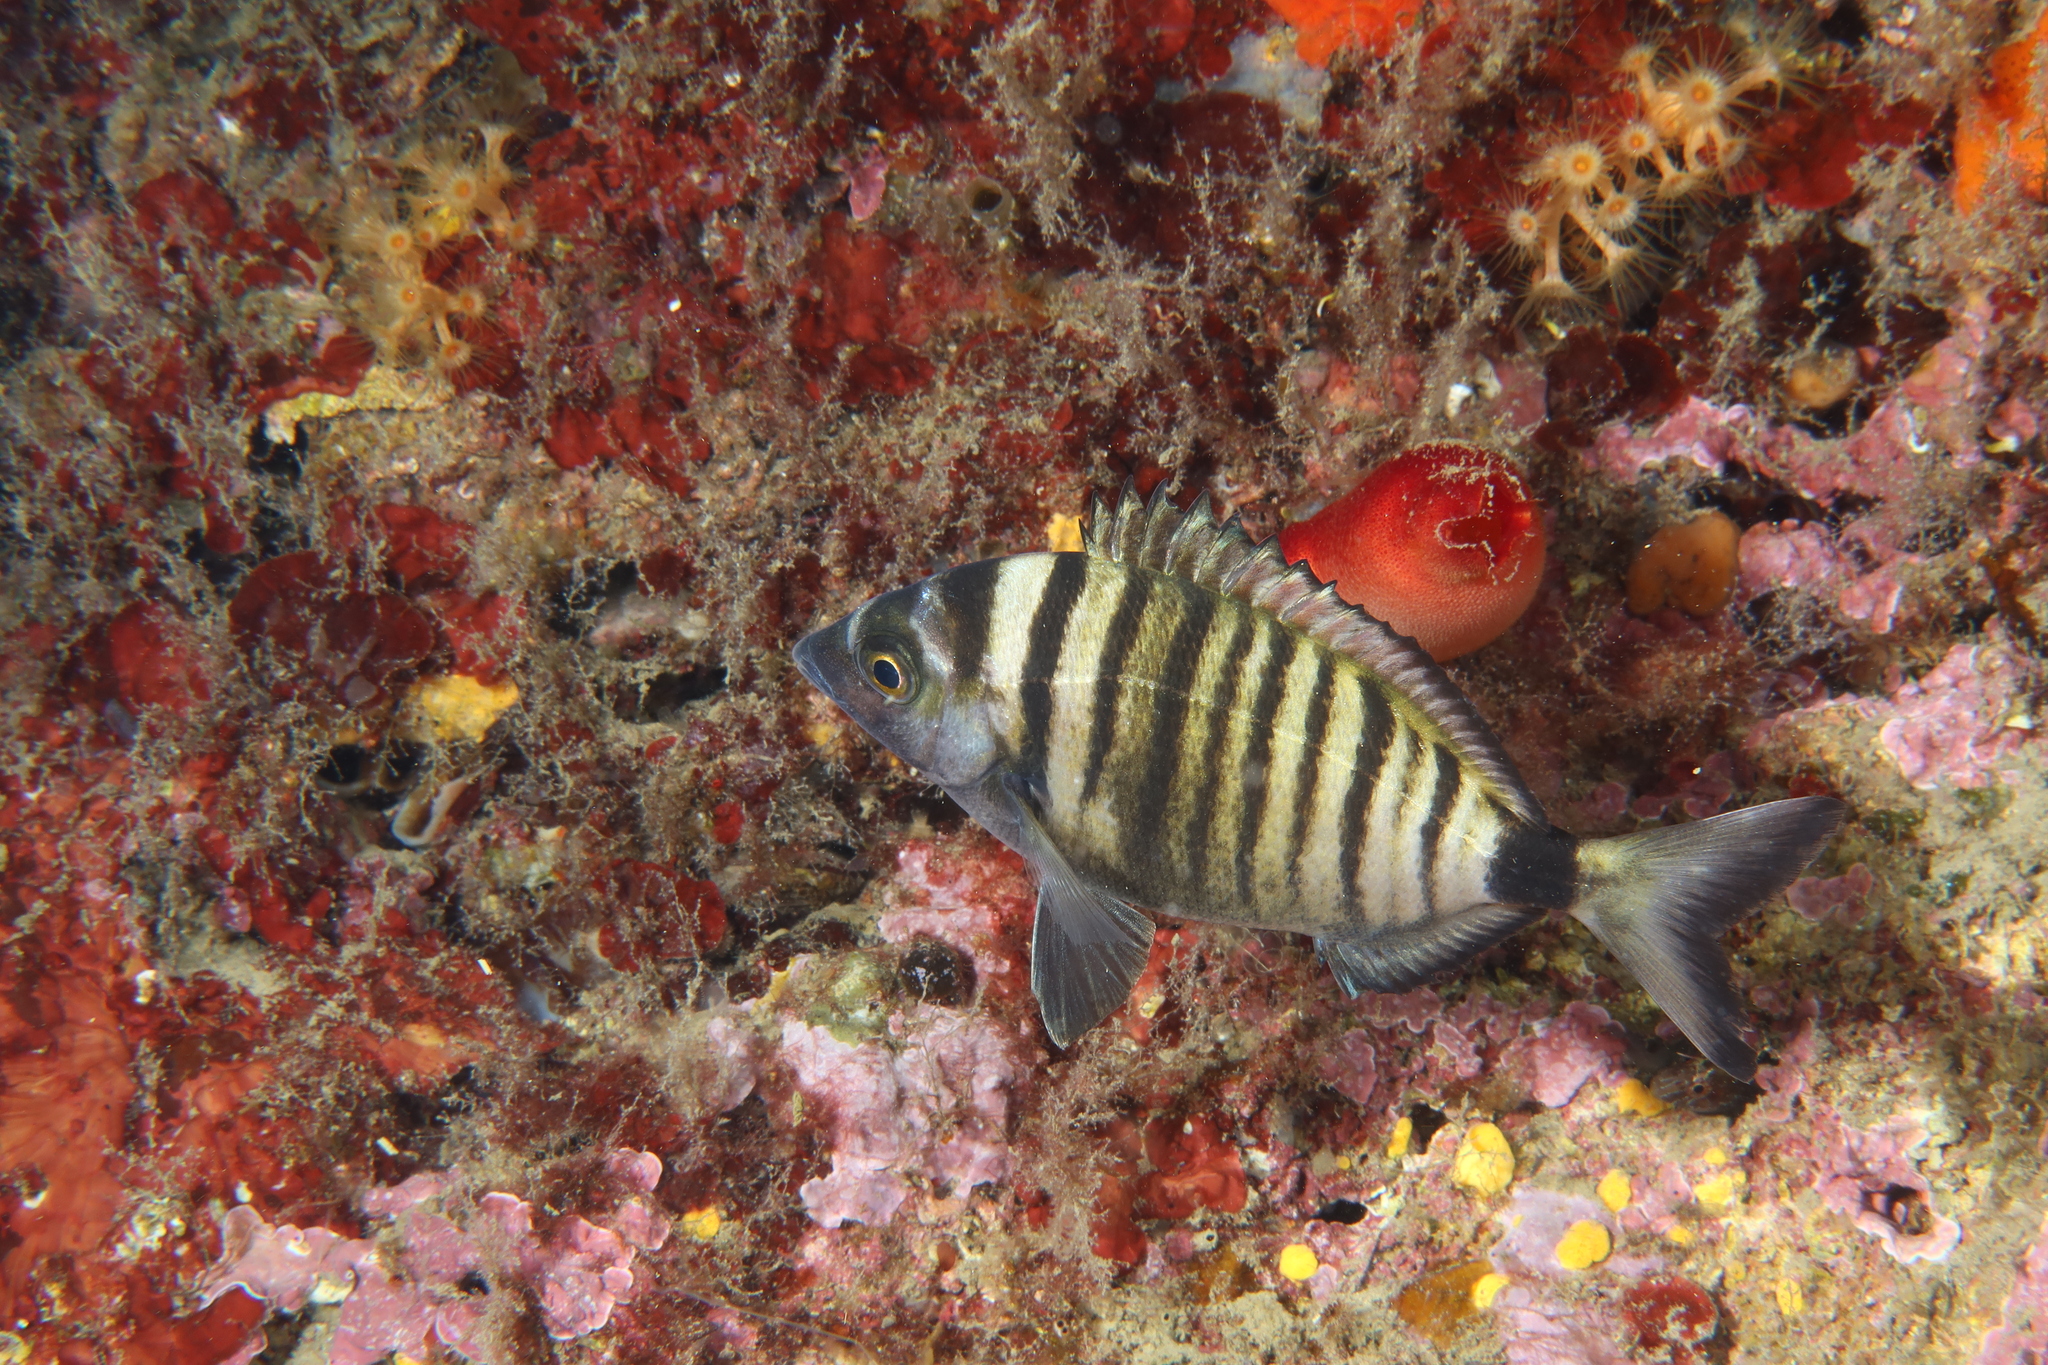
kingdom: Animalia
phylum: Chordata
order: Perciformes
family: Sparidae
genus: Diplodus
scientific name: Diplodus puntazzo
